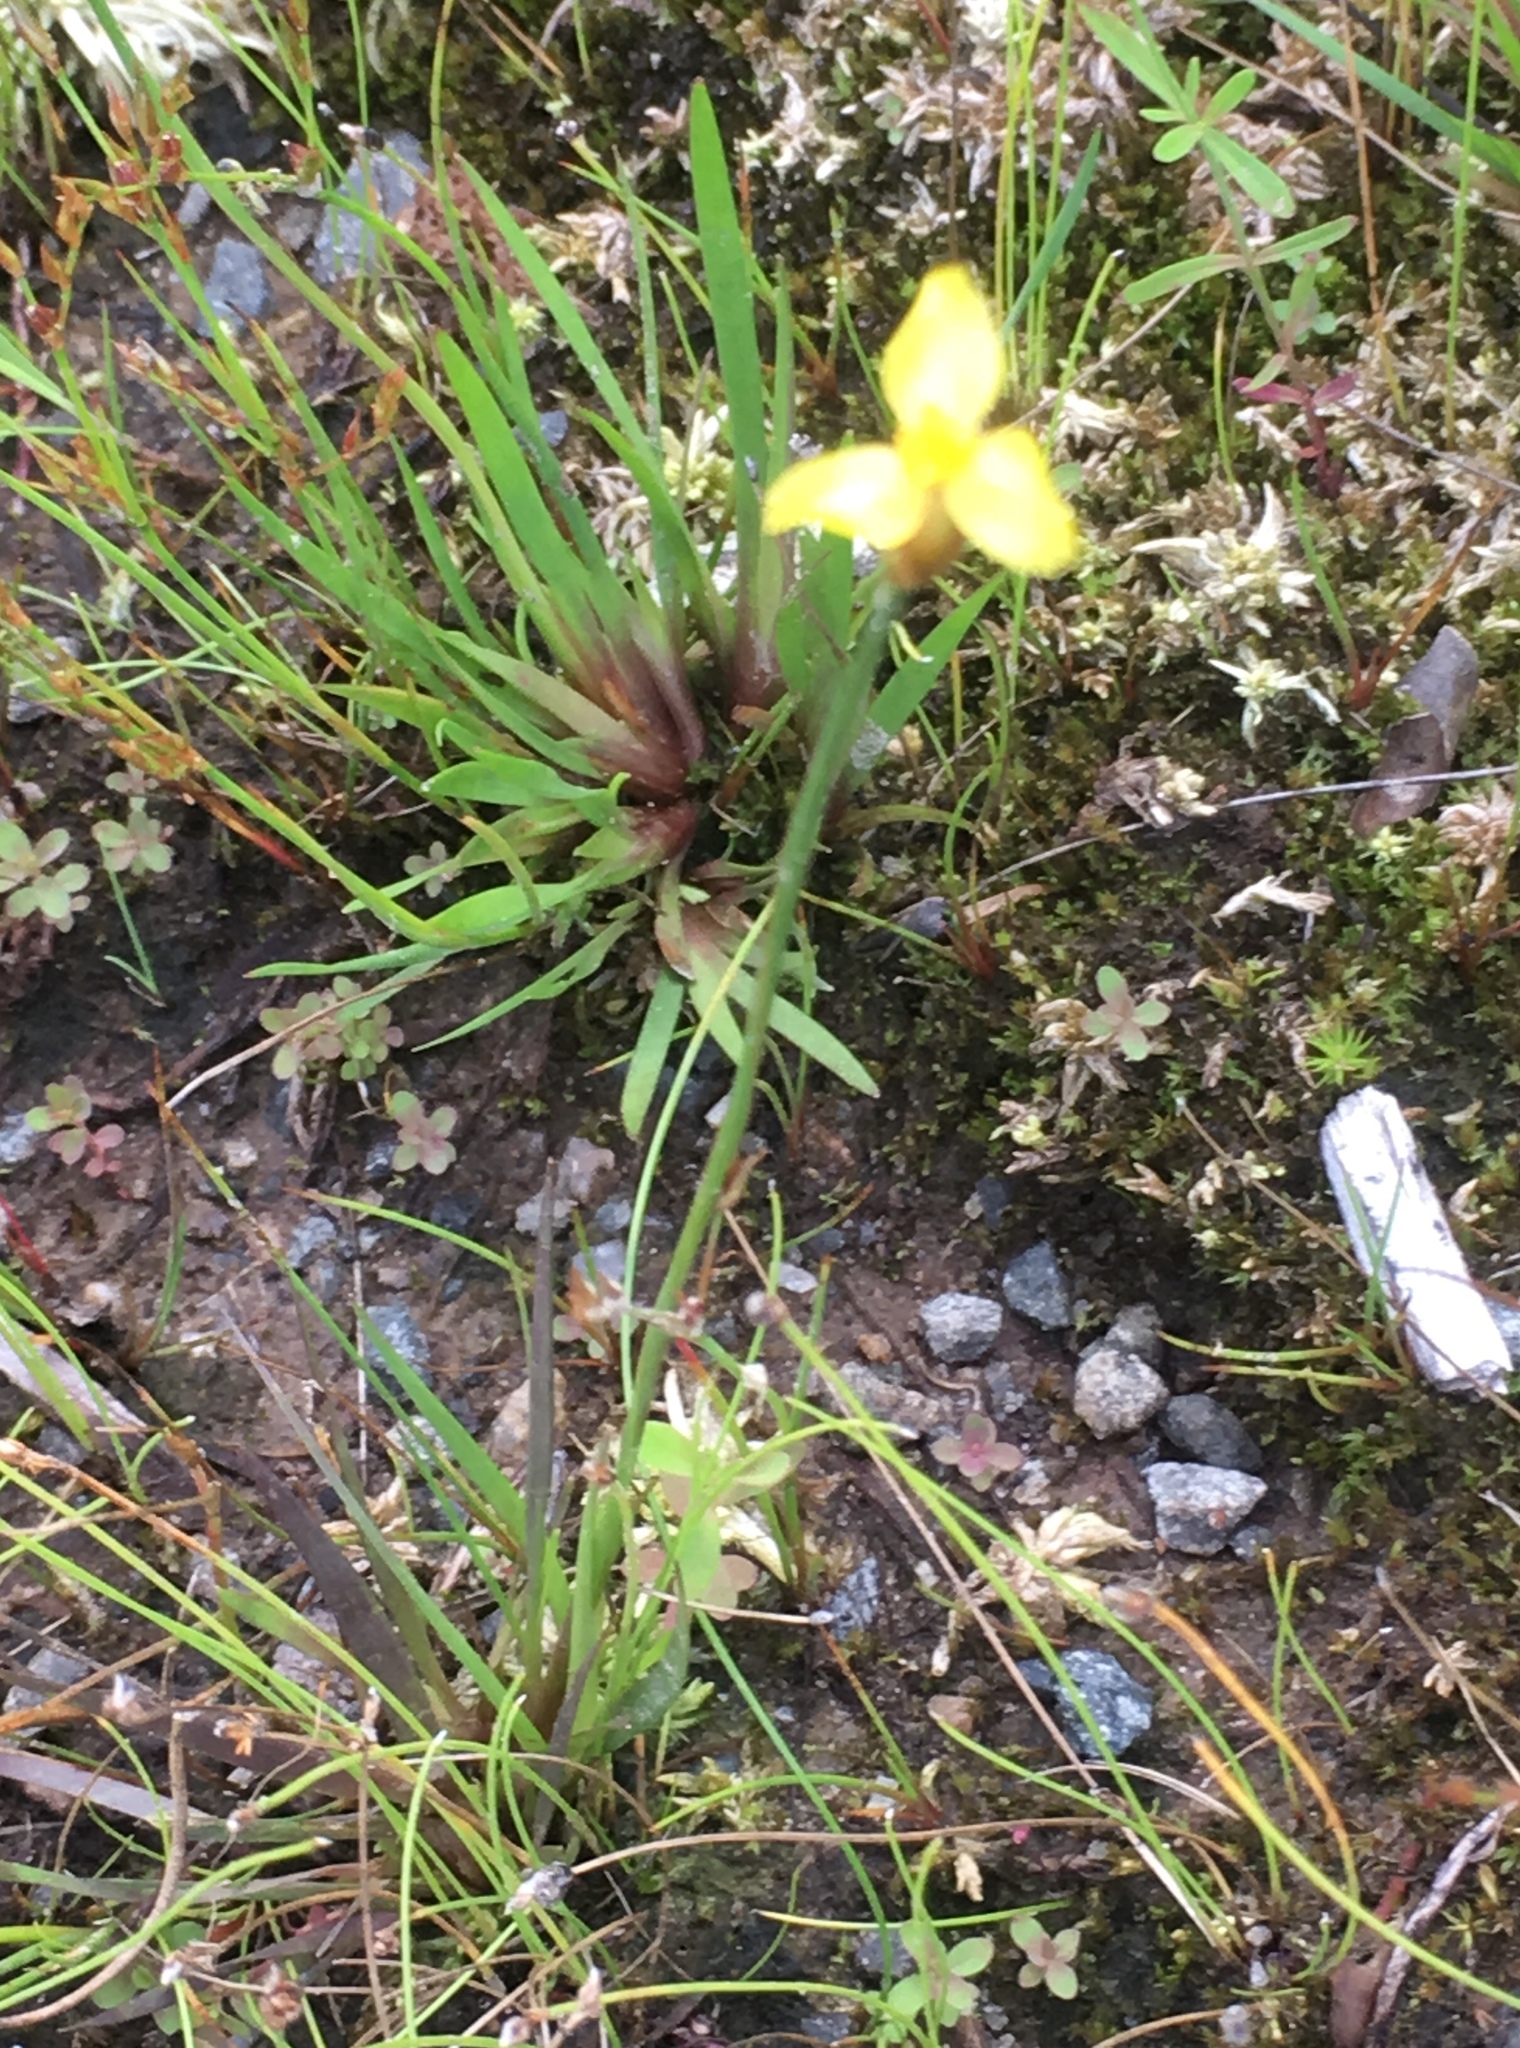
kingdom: Plantae
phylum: Tracheophyta
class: Liliopsida
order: Poales
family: Xyridaceae
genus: Xyris
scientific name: Xyris difformis
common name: Bog yellow-eyed-grass
